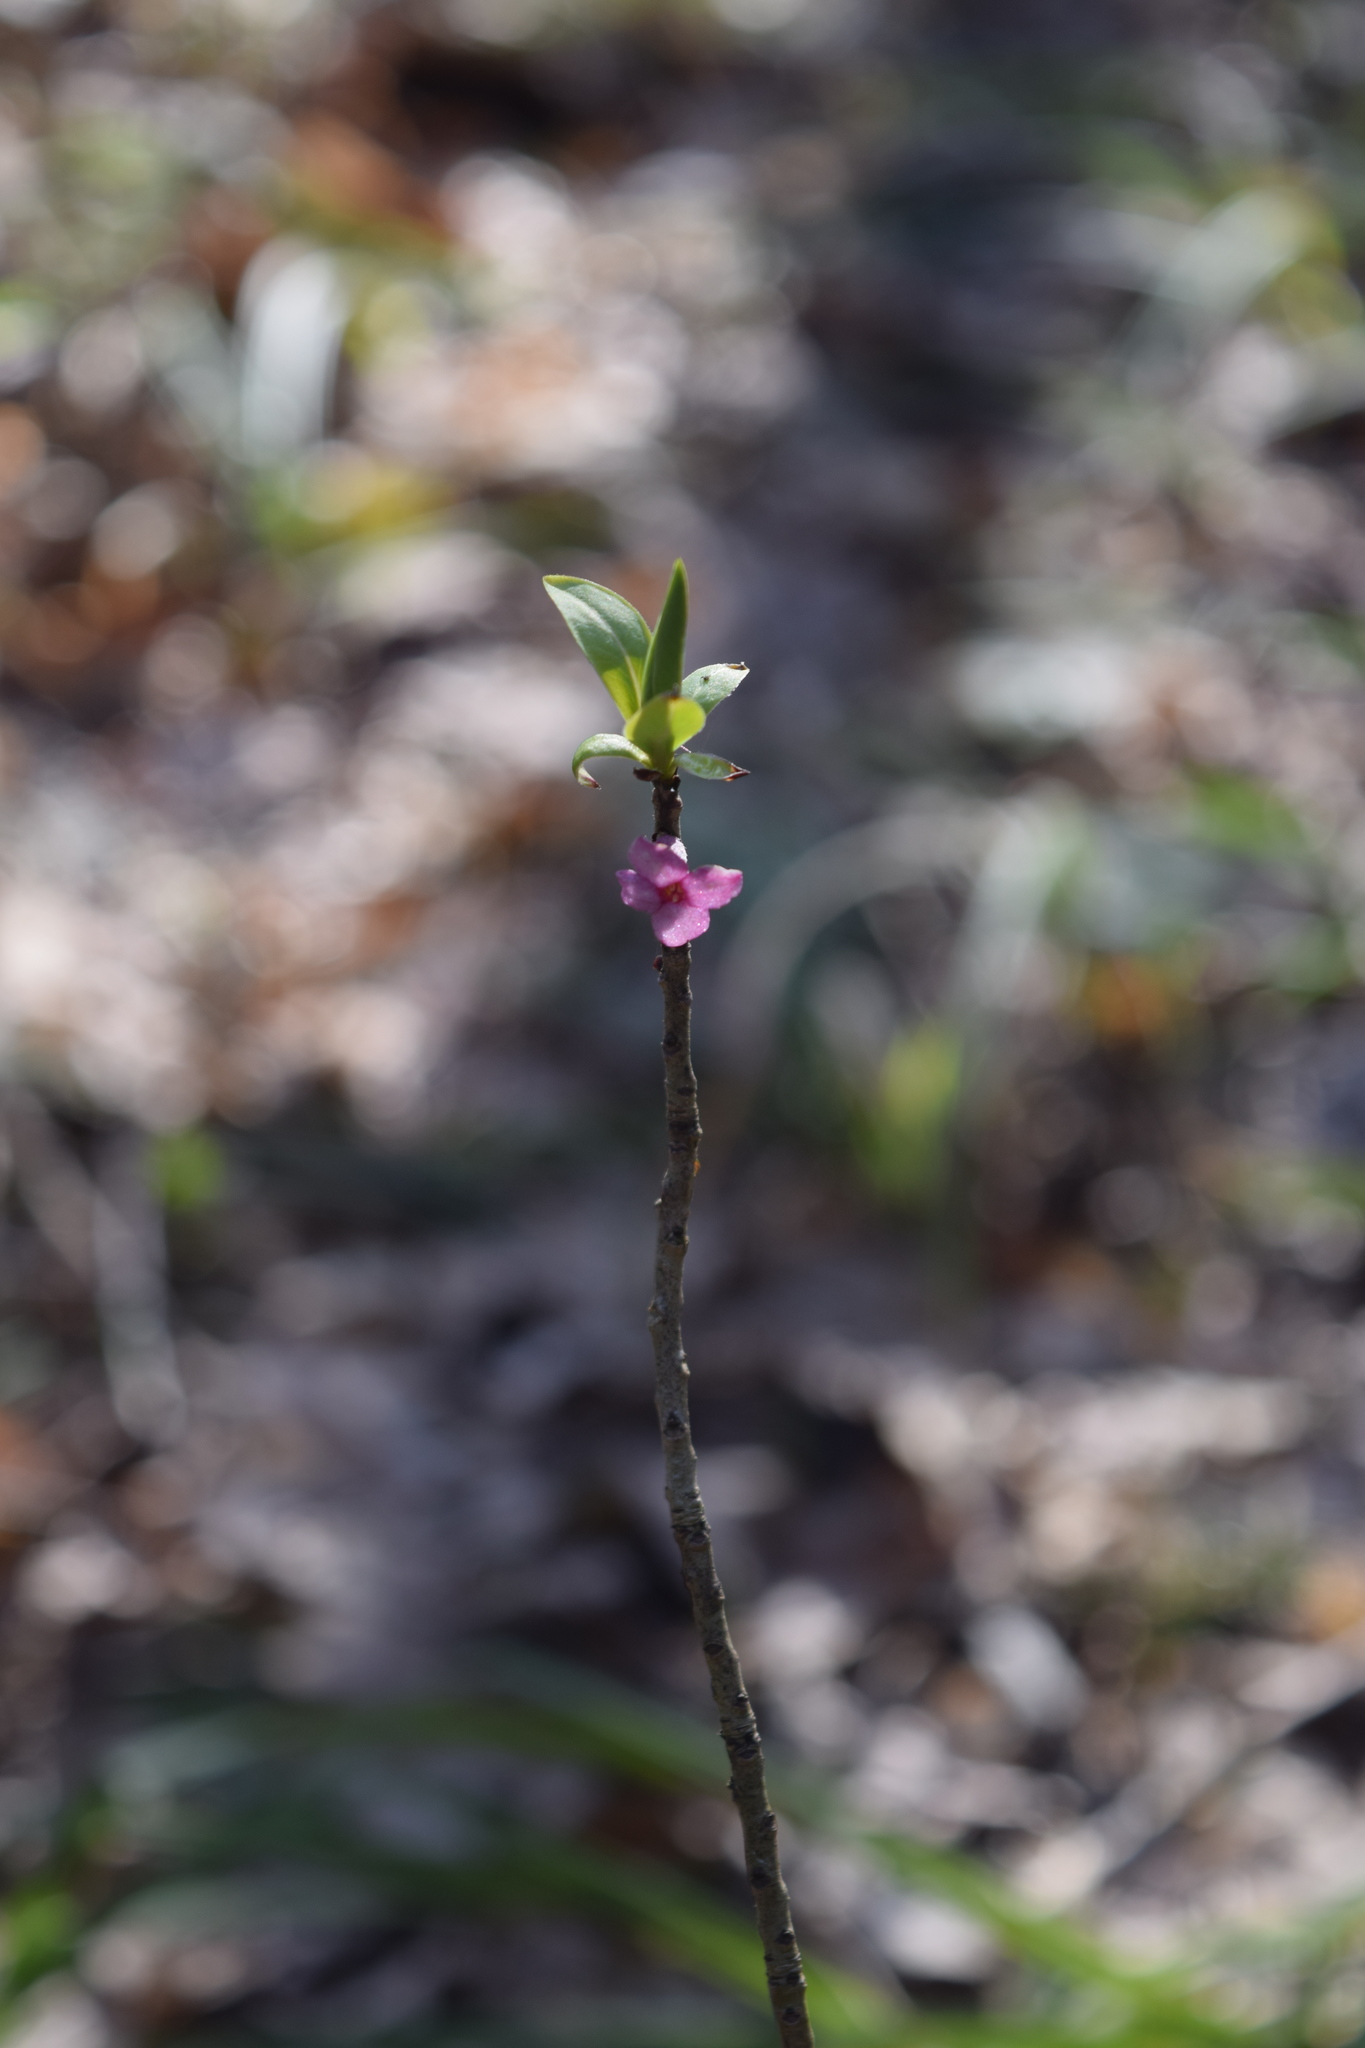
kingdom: Plantae
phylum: Tracheophyta
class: Magnoliopsida
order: Malvales
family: Thymelaeaceae
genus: Daphne
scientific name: Daphne mezereum
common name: Mezereon
